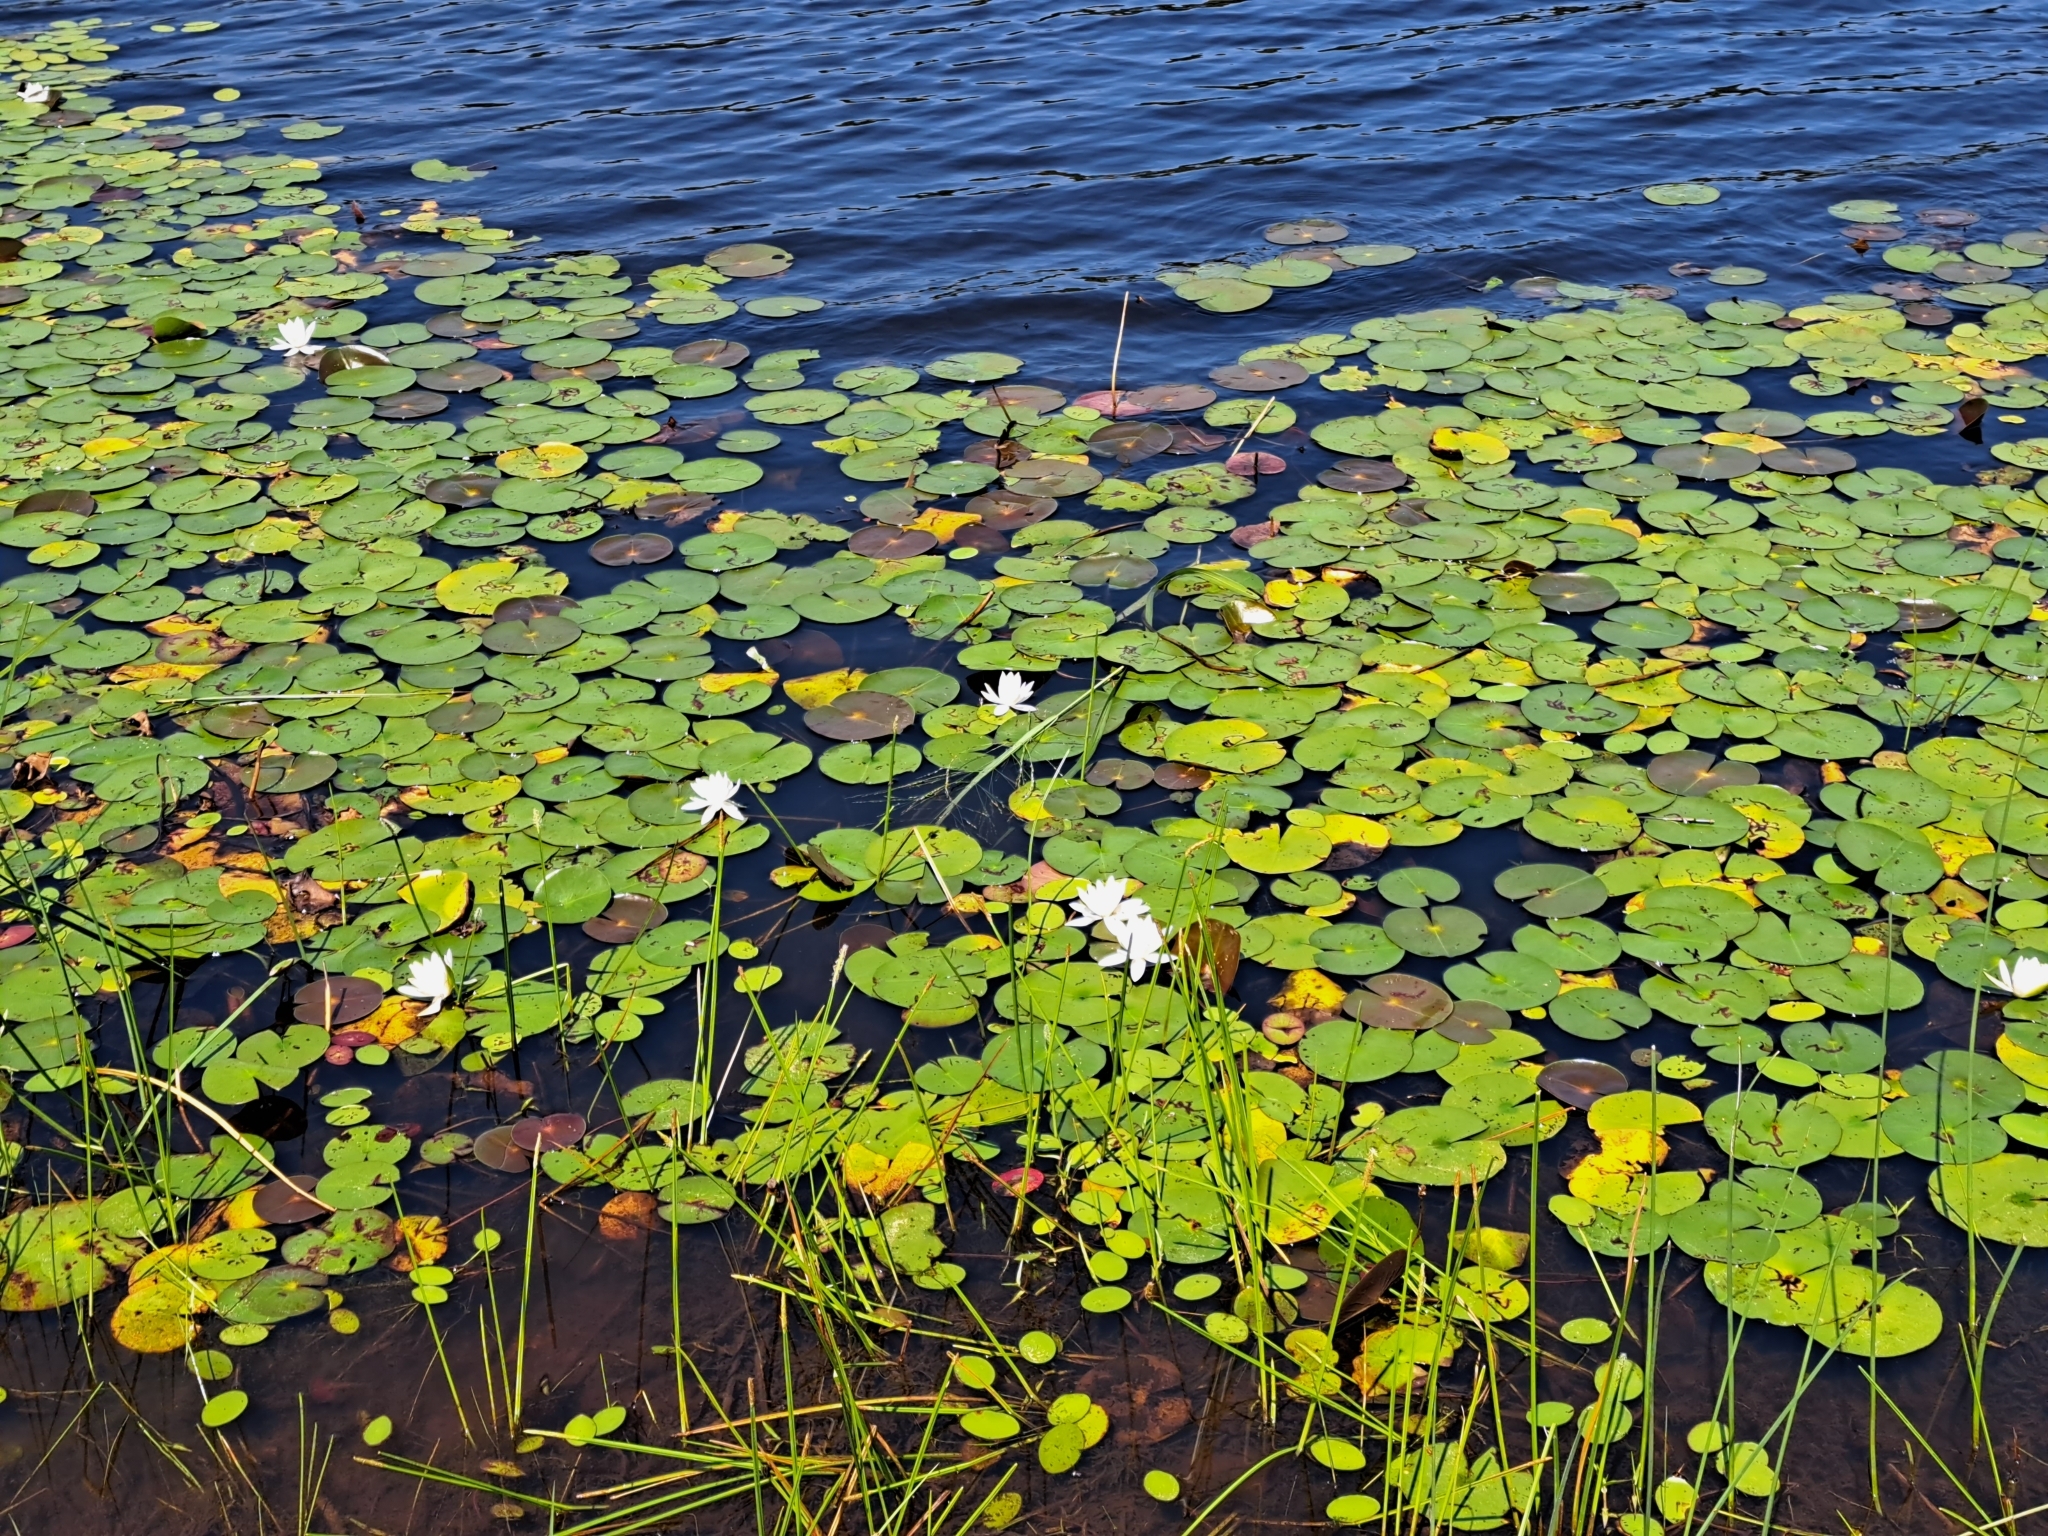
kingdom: Plantae
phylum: Tracheophyta
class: Magnoliopsida
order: Nymphaeales
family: Nymphaeaceae
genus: Nymphaea
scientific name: Nymphaea odorata
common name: Fragrant water-lily
